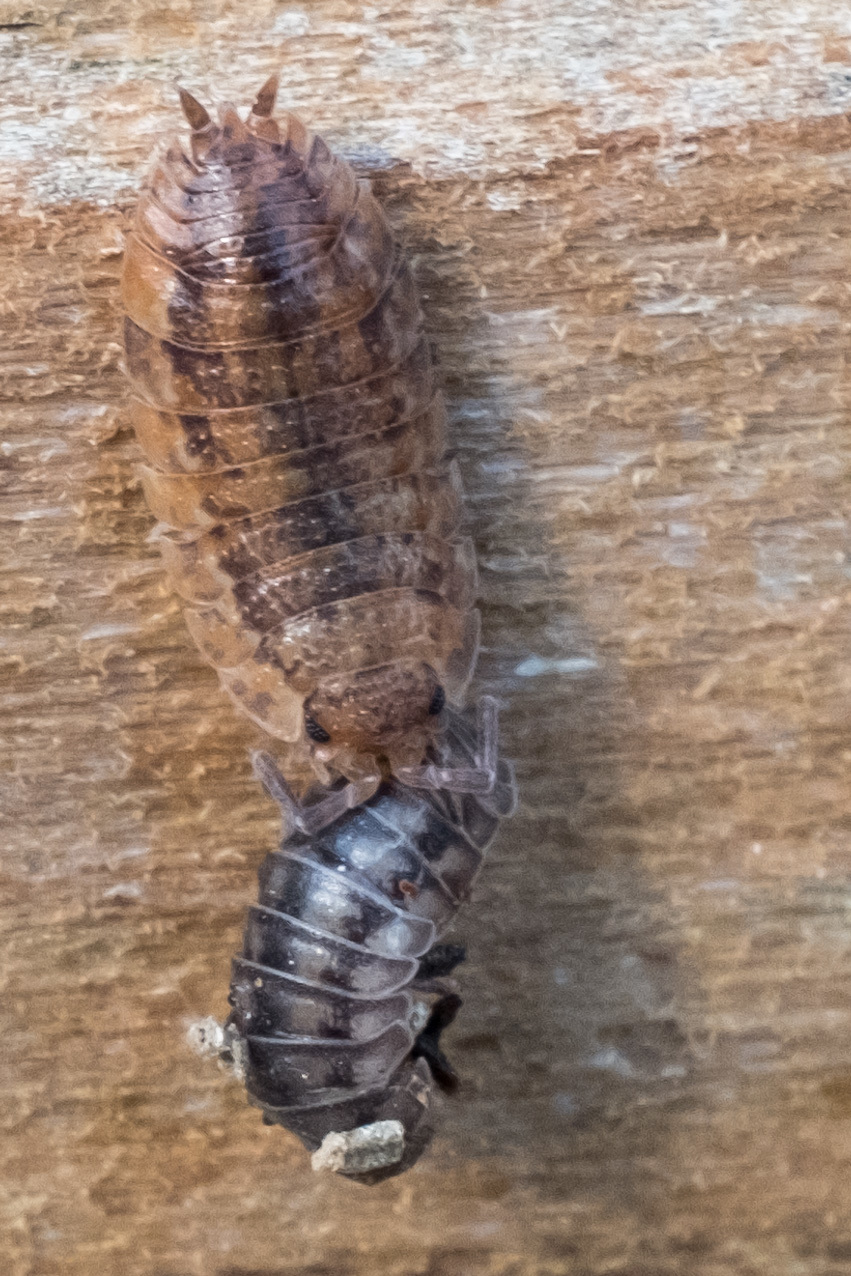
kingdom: Animalia
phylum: Arthropoda
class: Malacostraca
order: Isopoda
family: Trachelipodidae
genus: Trachelipus
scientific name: Trachelipus rathkii
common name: Isopod
